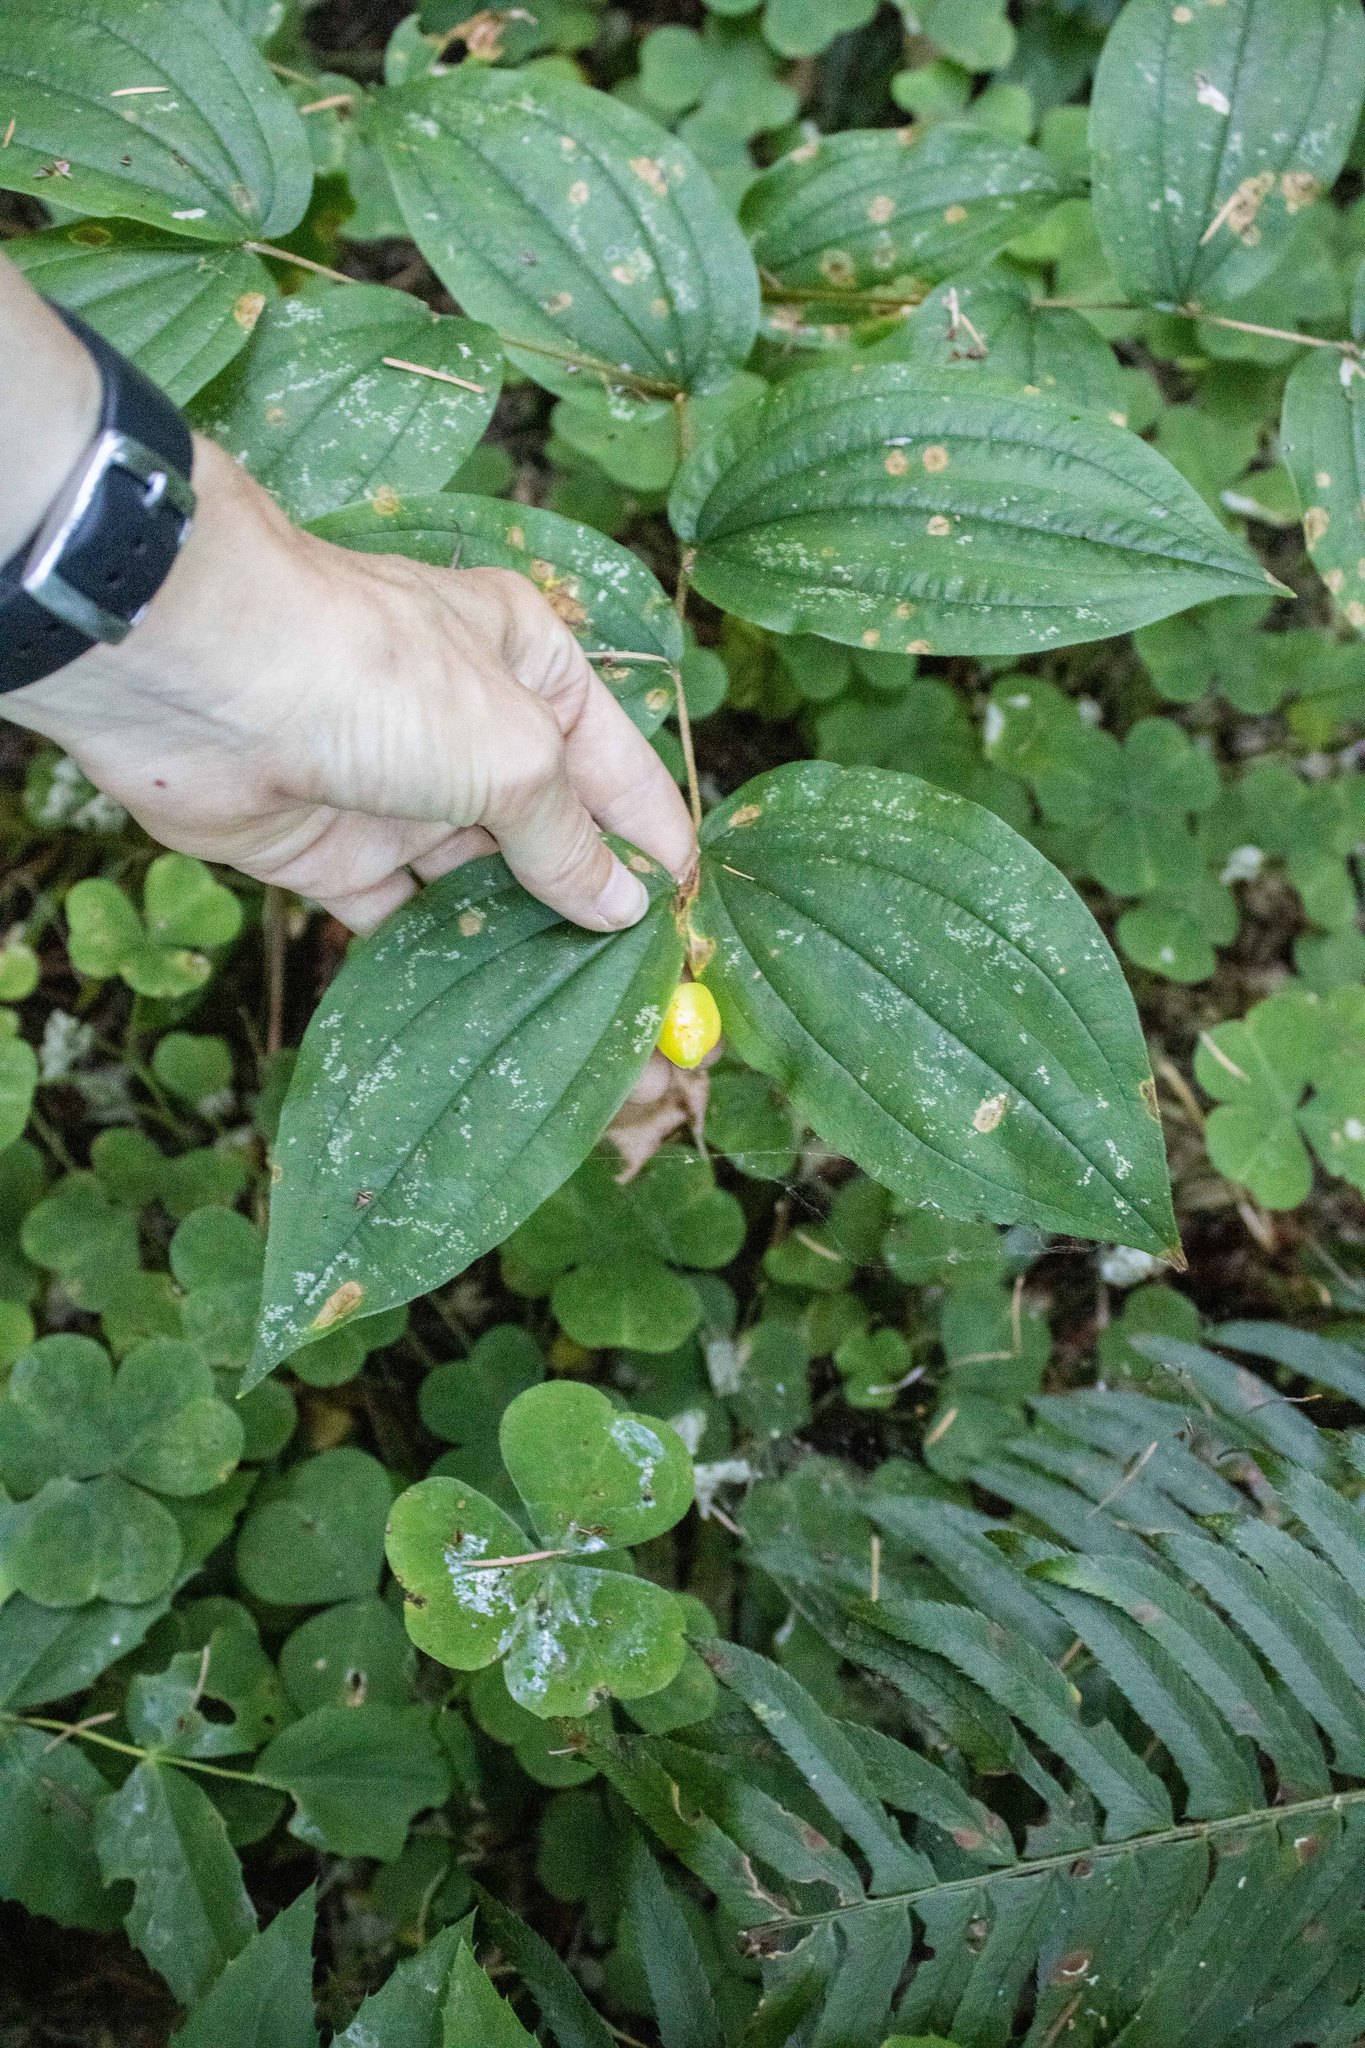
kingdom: Plantae
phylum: Tracheophyta
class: Liliopsida
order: Liliales
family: Liliaceae
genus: Prosartes
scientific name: Prosartes smithii
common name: Fairy-lantern
